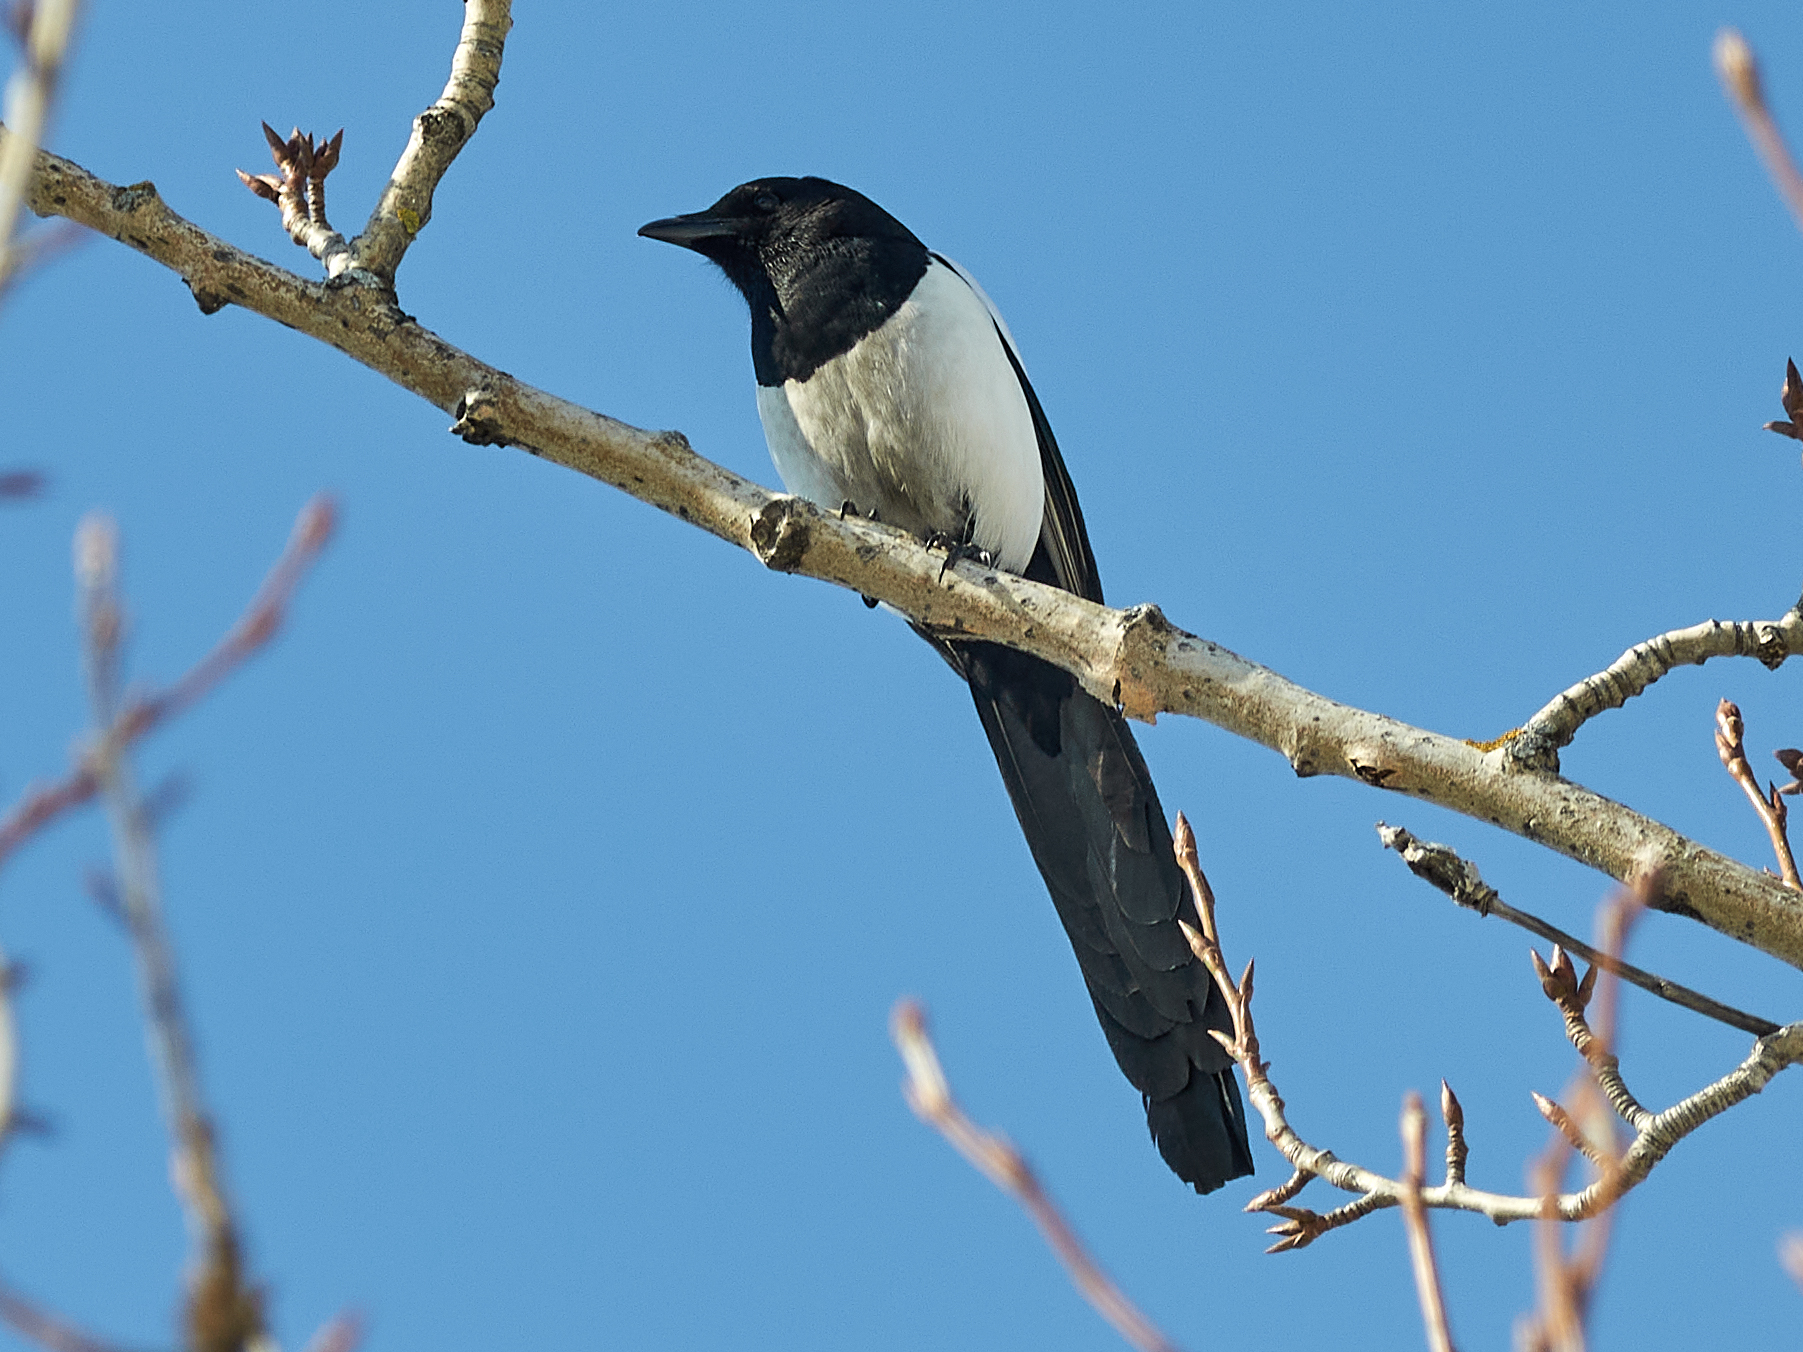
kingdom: Animalia
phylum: Chordata
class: Aves
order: Passeriformes
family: Corvidae
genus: Pica
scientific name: Pica pica
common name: Eurasian magpie
